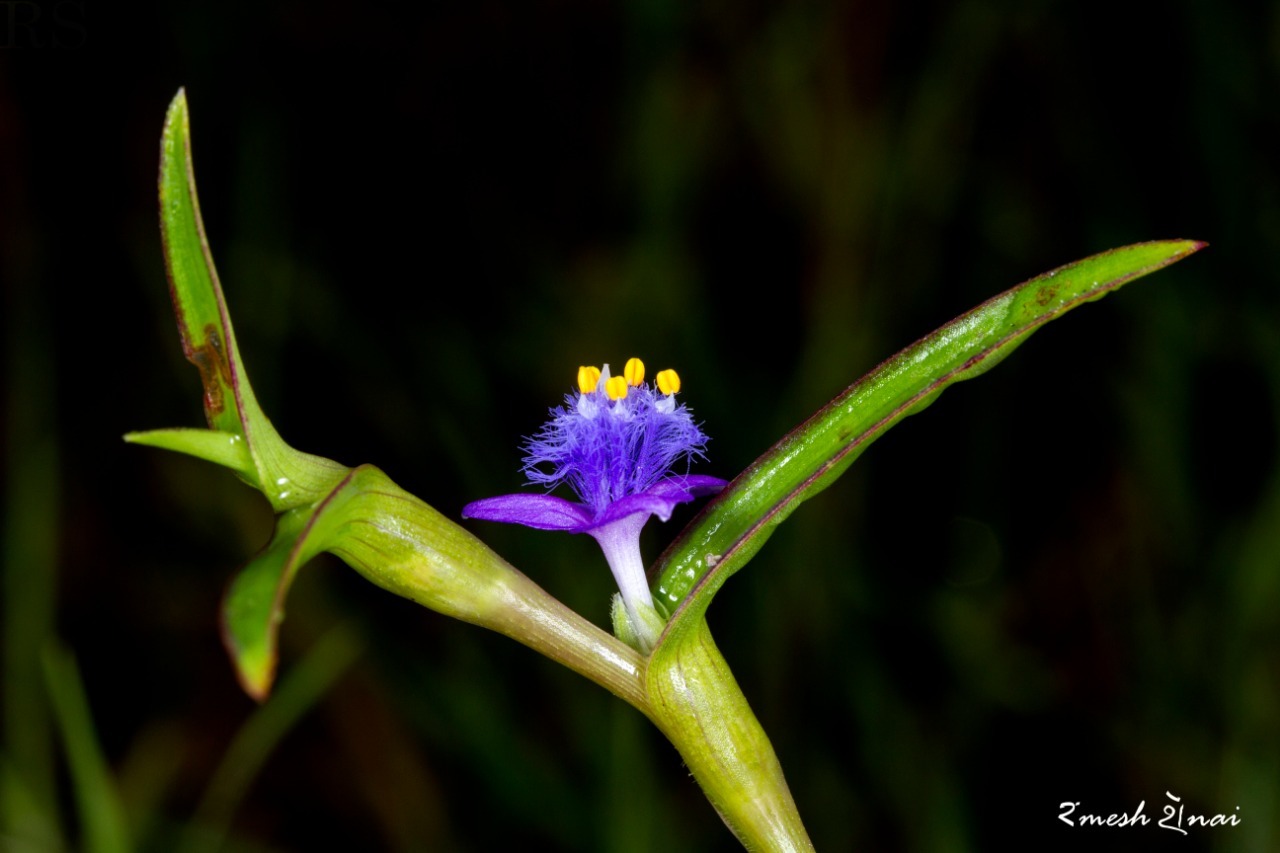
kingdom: Plantae
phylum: Tracheophyta
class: Liliopsida
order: Commelinales
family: Commelinaceae
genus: Cyanotis
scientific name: Cyanotis axillaris
